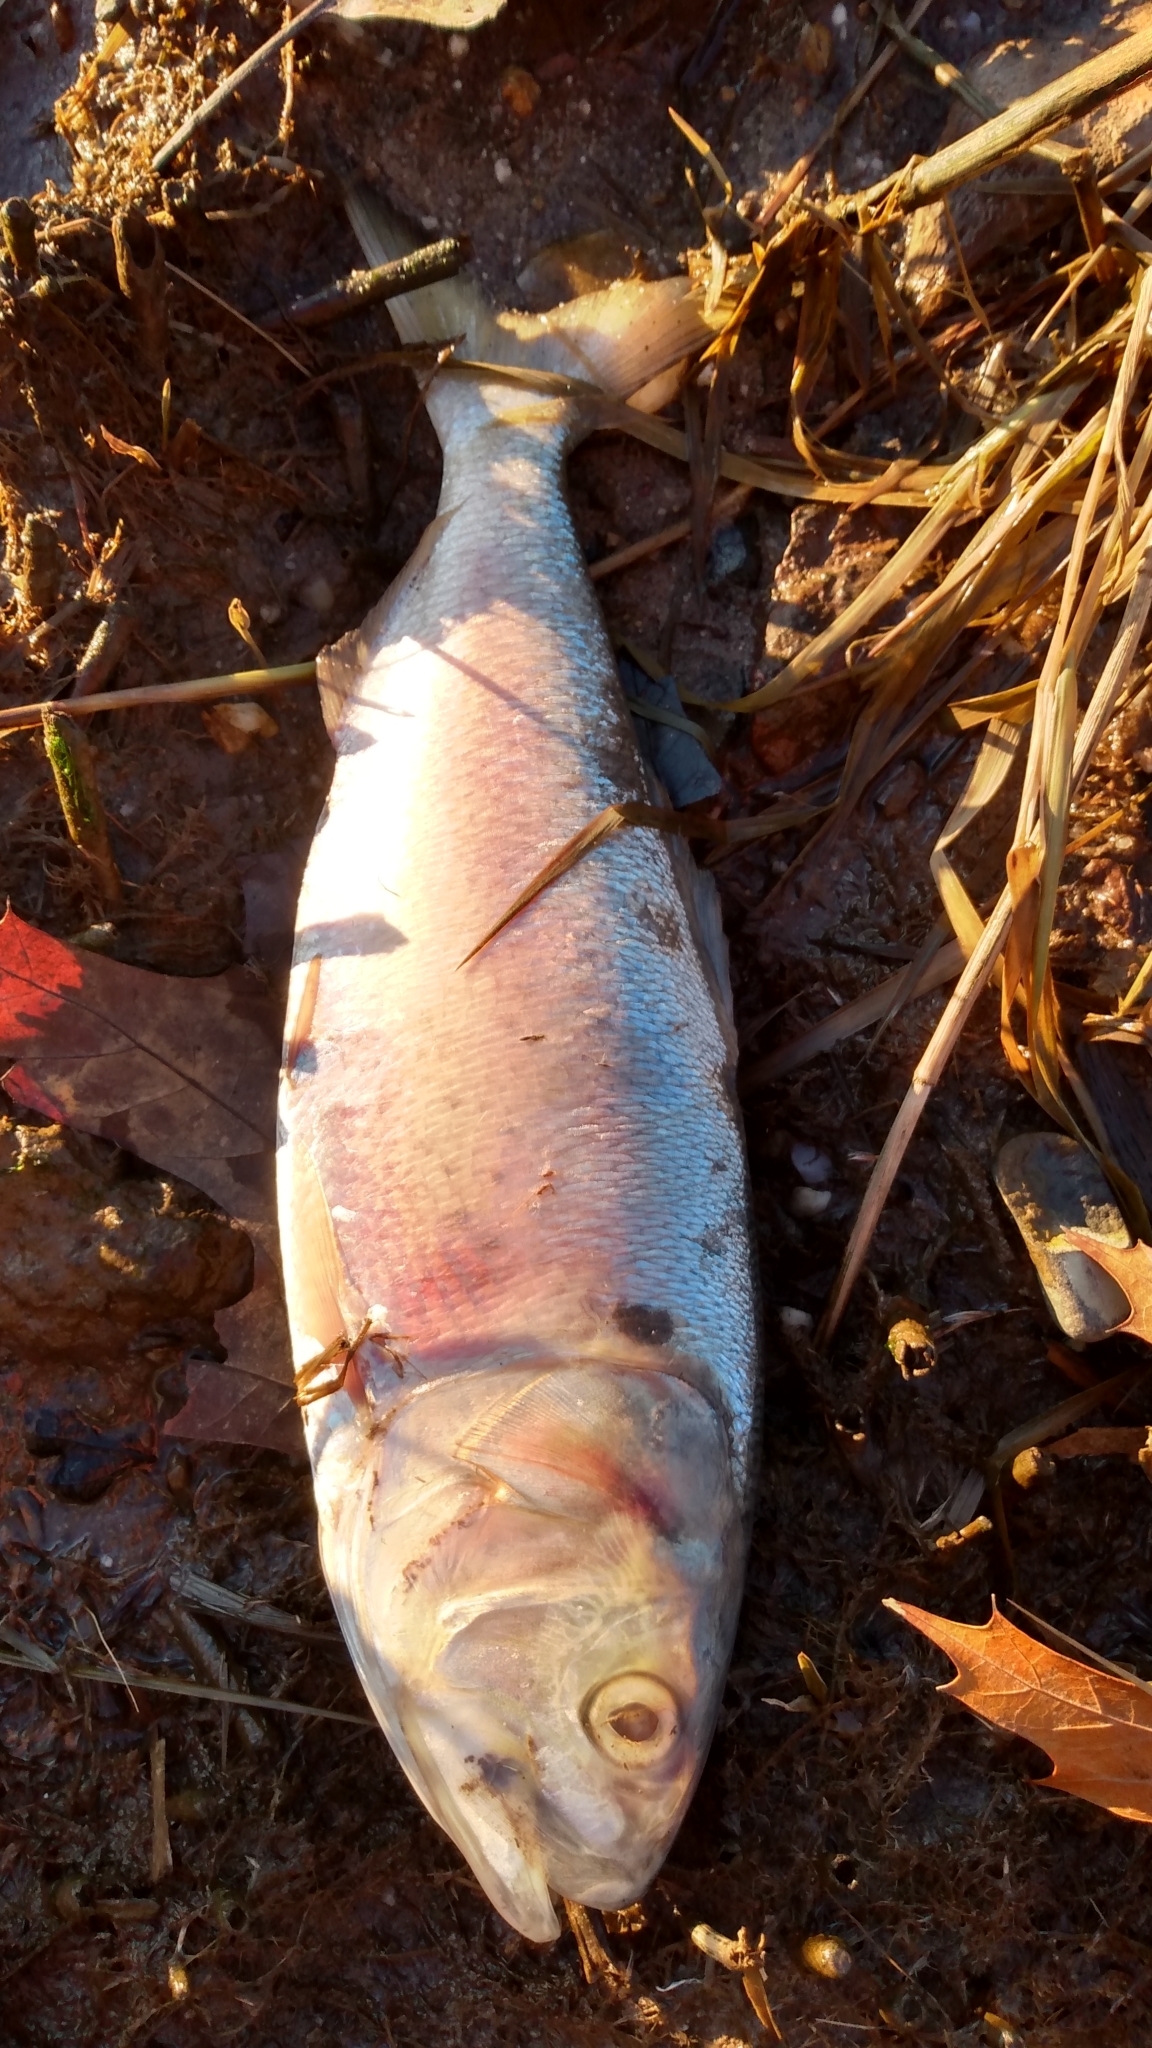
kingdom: Animalia
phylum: Chordata
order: Clupeiformes
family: Clupeidae
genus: Brevoortia
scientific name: Brevoortia tyrannus
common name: Atlantic menhaden
